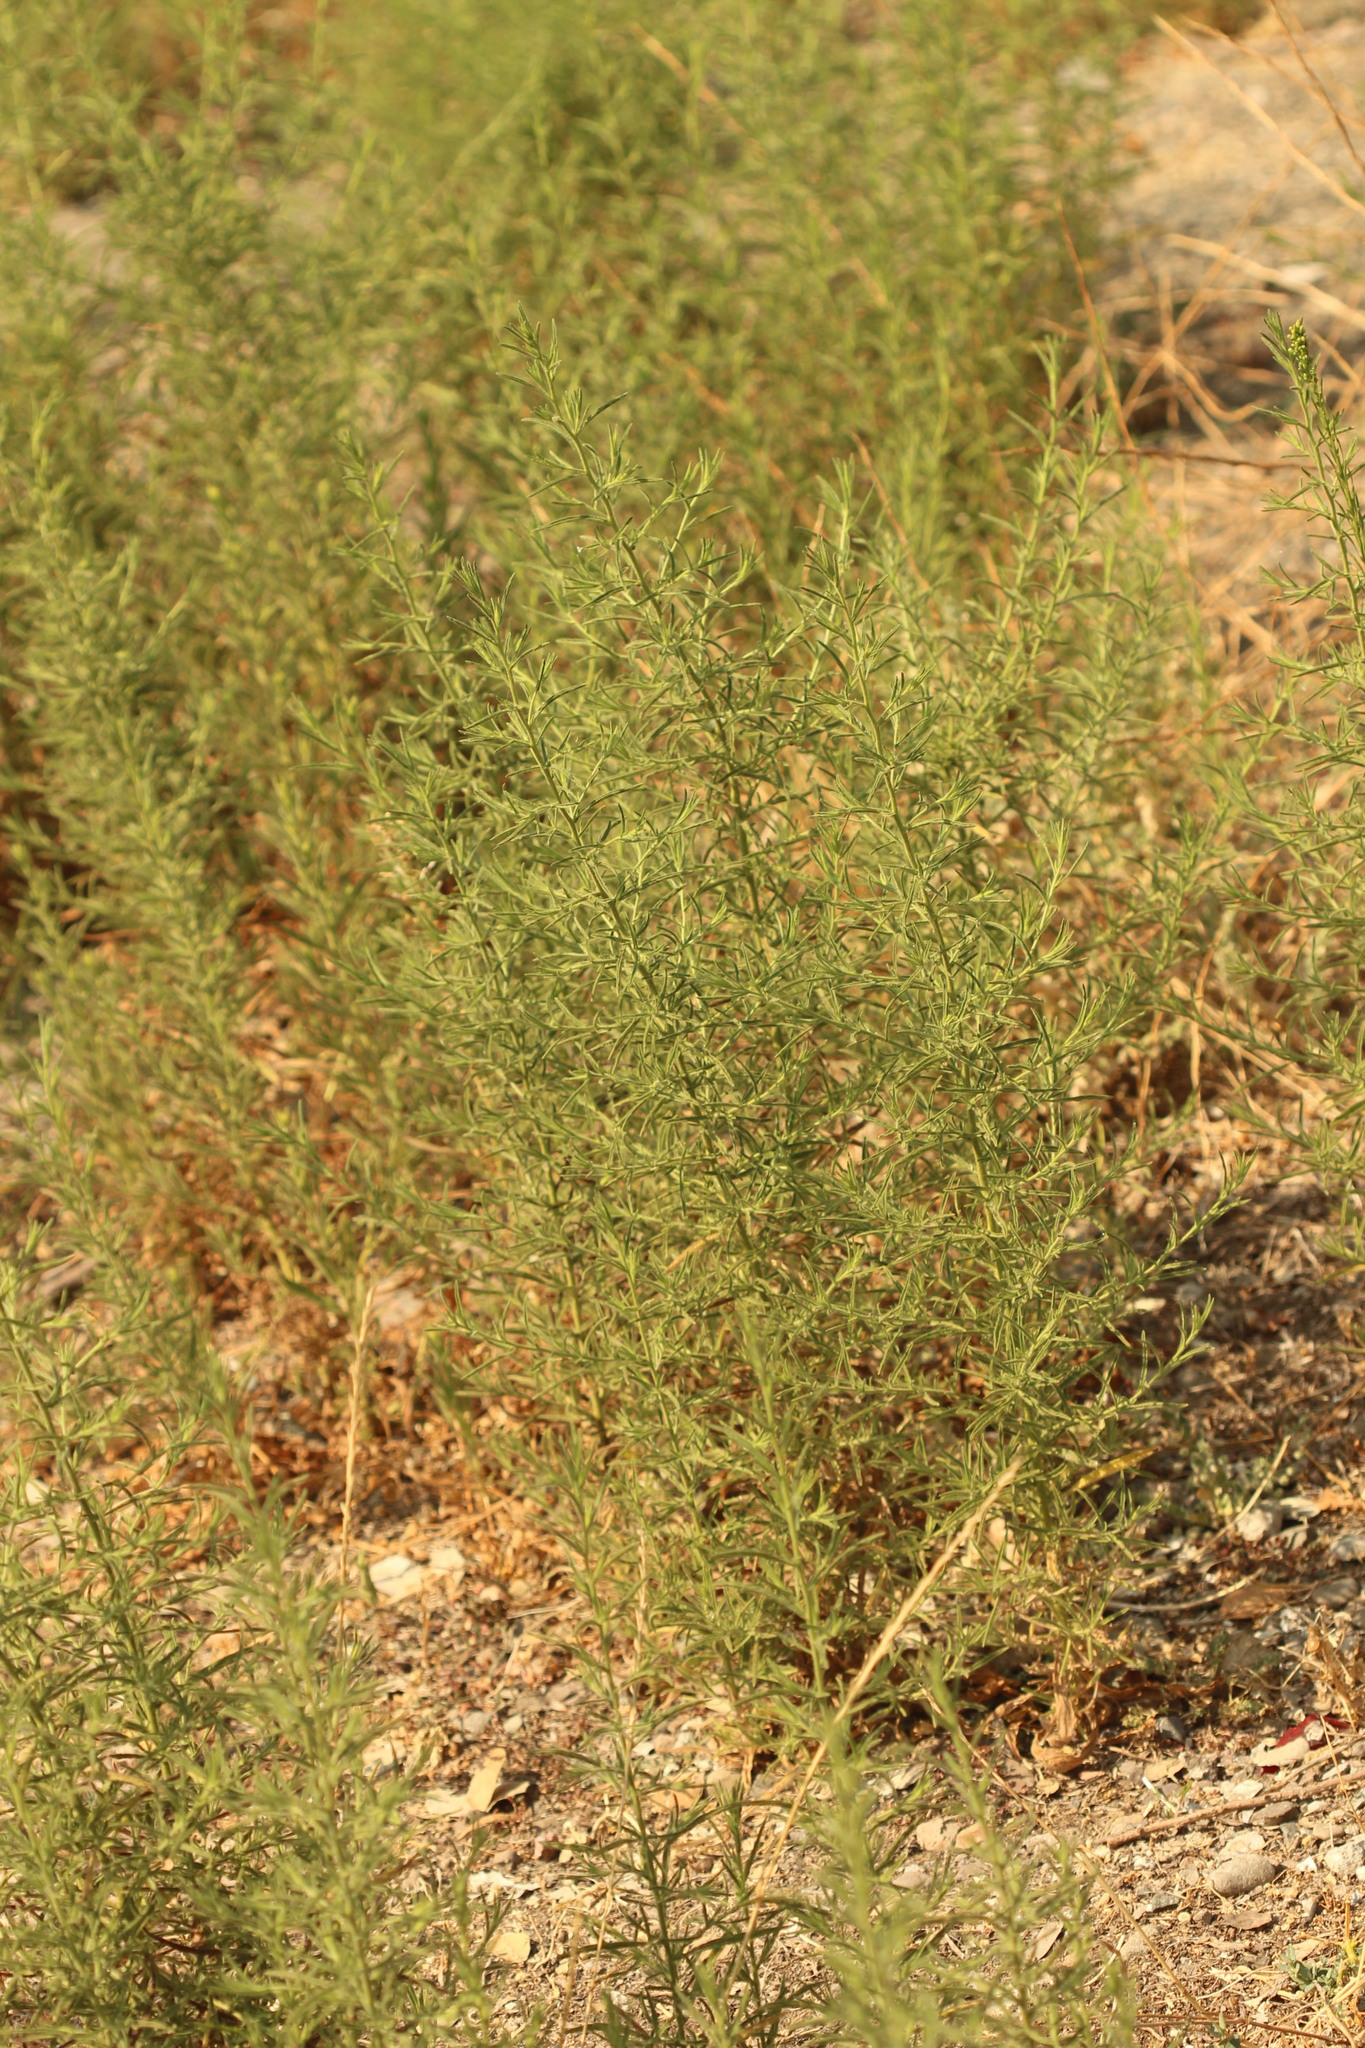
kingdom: Plantae
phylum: Tracheophyta
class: Magnoliopsida
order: Asterales
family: Asteraceae
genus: Dittrichia
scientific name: Dittrichia graveolens
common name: Stinking fleabane
